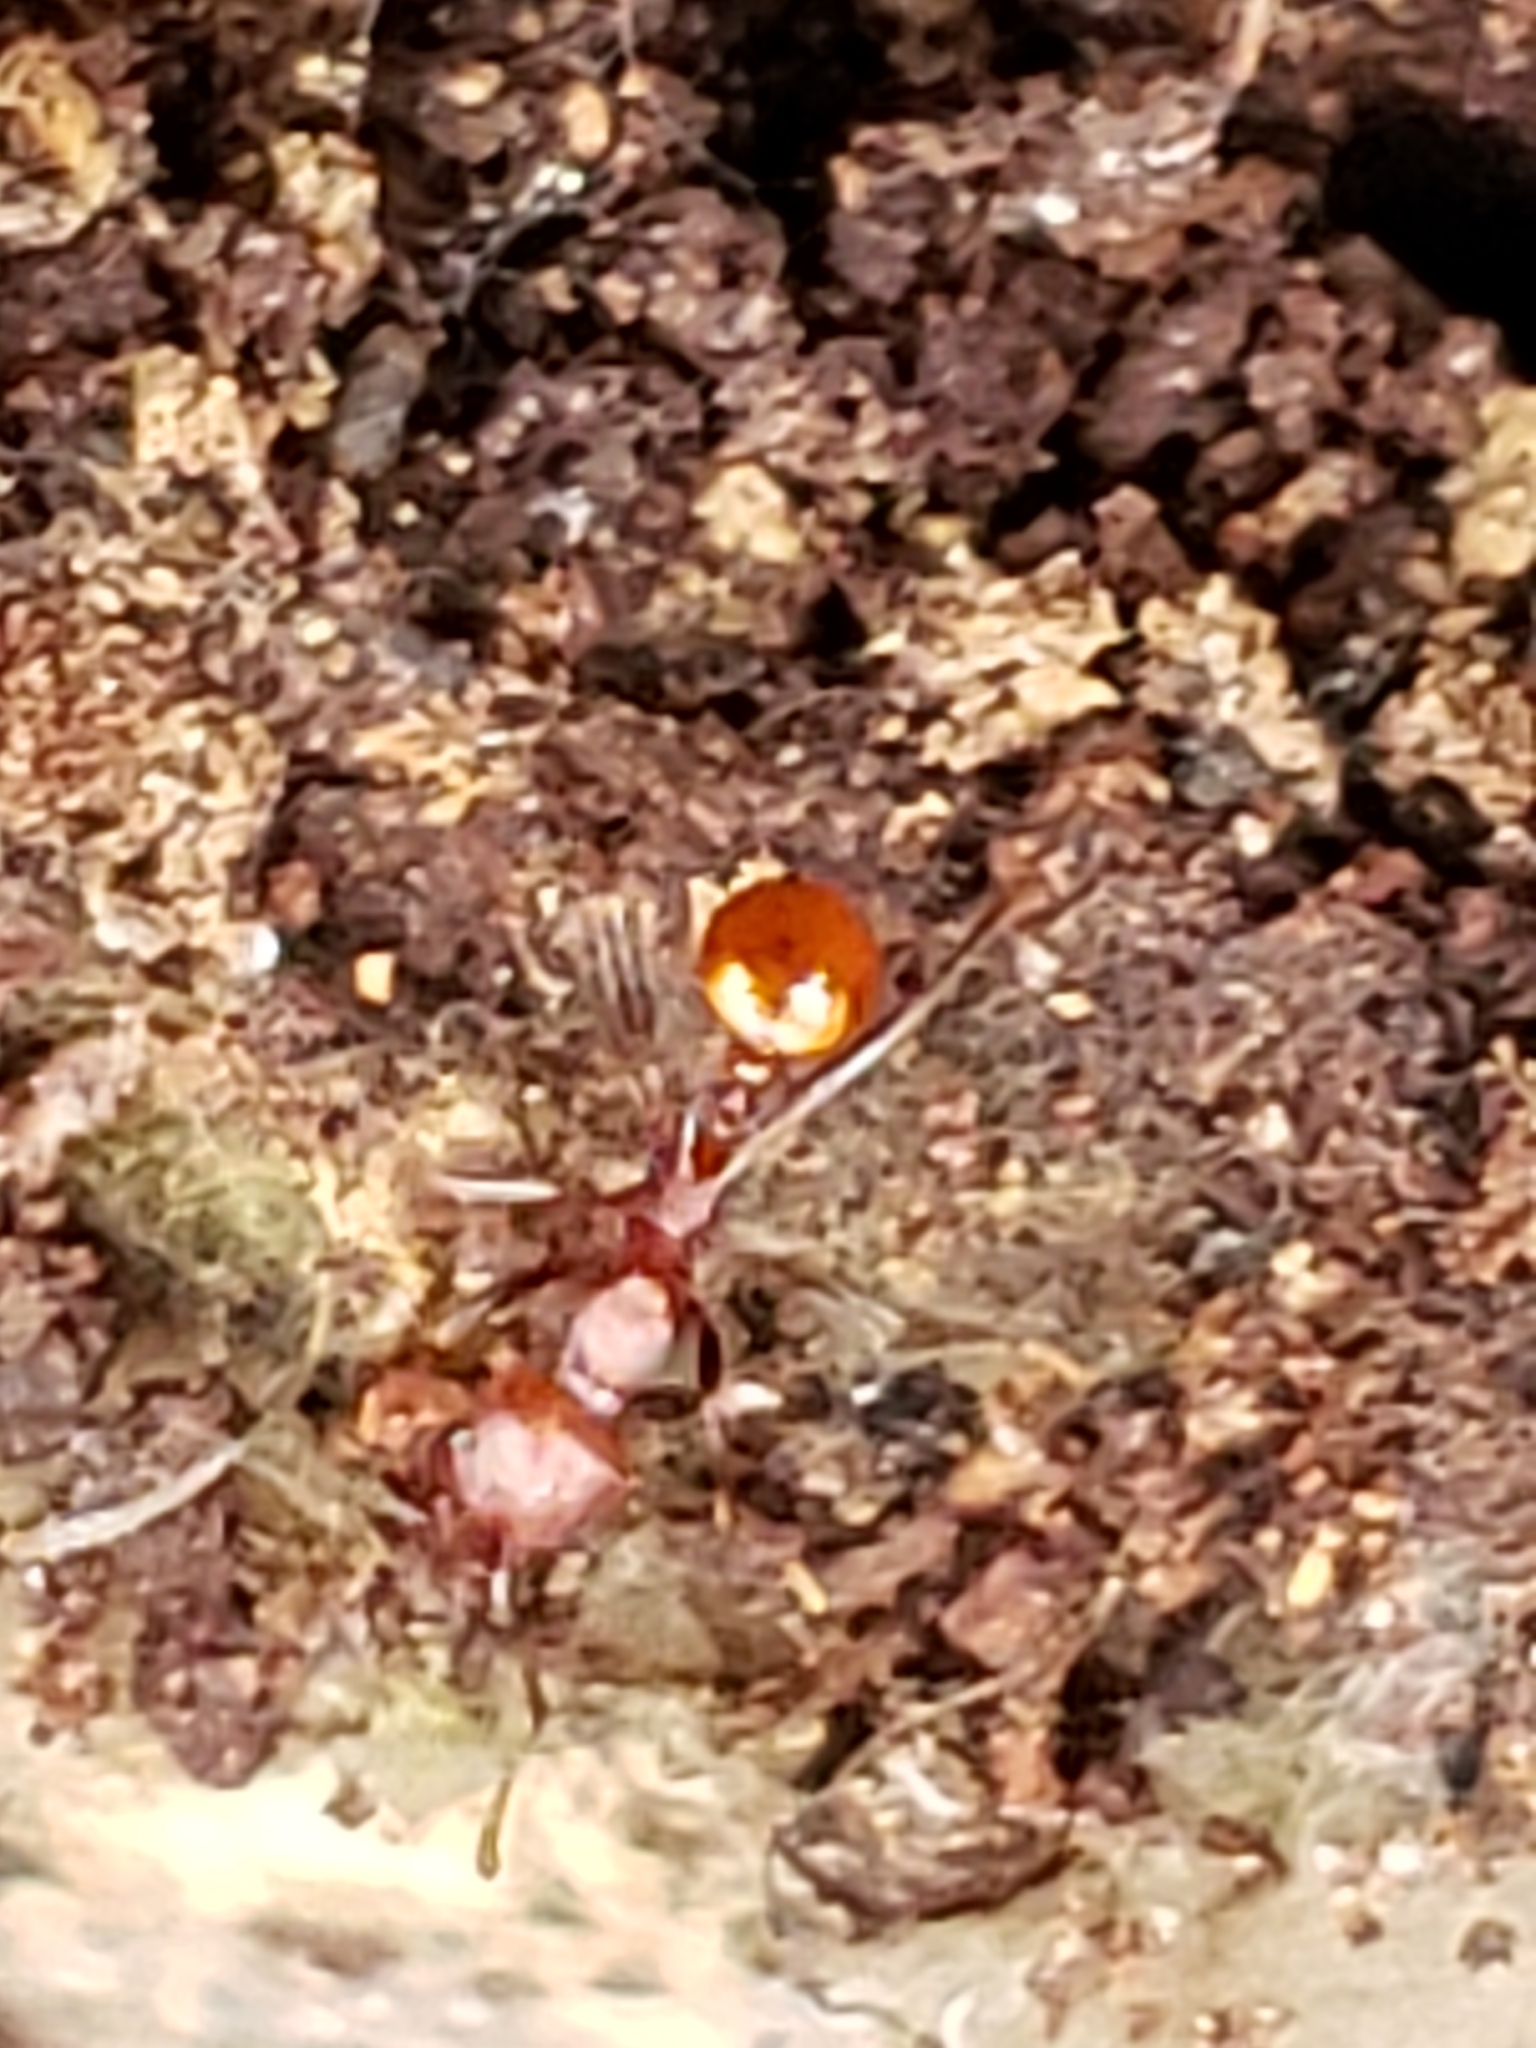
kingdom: Animalia
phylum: Arthropoda
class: Insecta
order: Hymenoptera
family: Formicidae
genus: Aphaenogaster
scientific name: Aphaenogaster tennesseensis
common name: Tennessee thread-waisted ant
